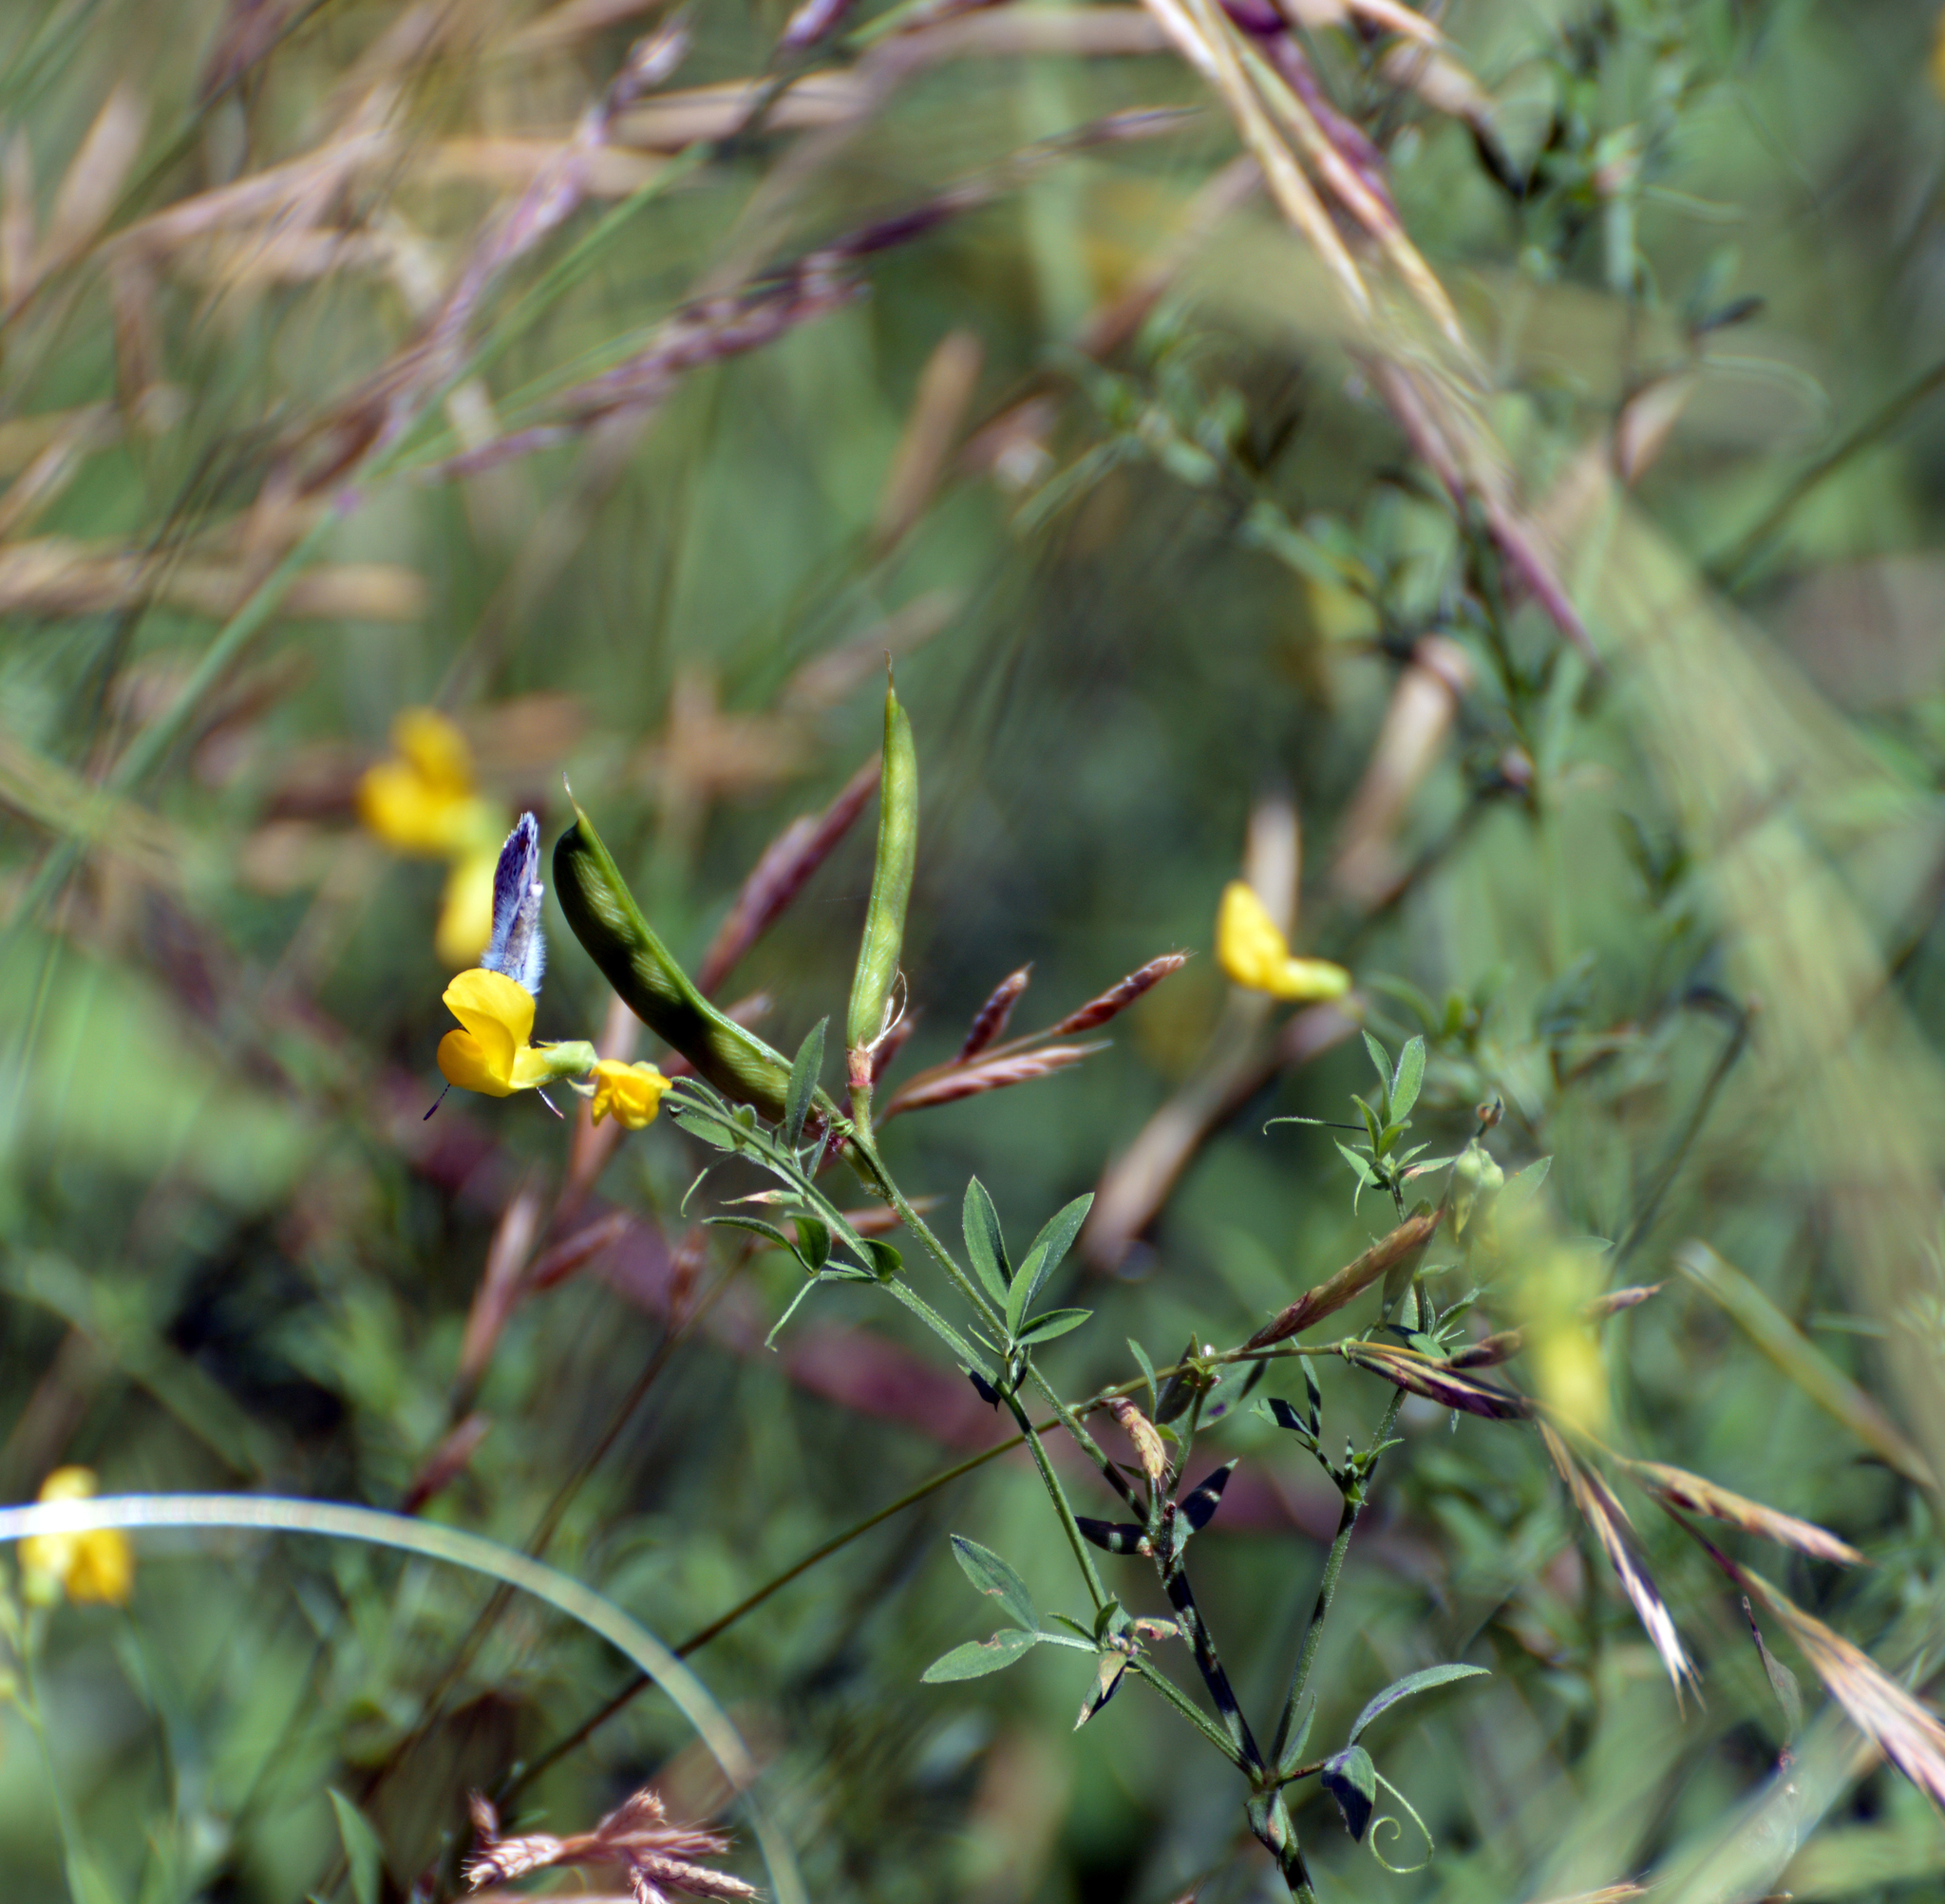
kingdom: Plantae
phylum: Tracheophyta
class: Magnoliopsida
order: Fabales
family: Fabaceae
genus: Lathyrus
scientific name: Lathyrus pratensis
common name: Meadow vetchling
